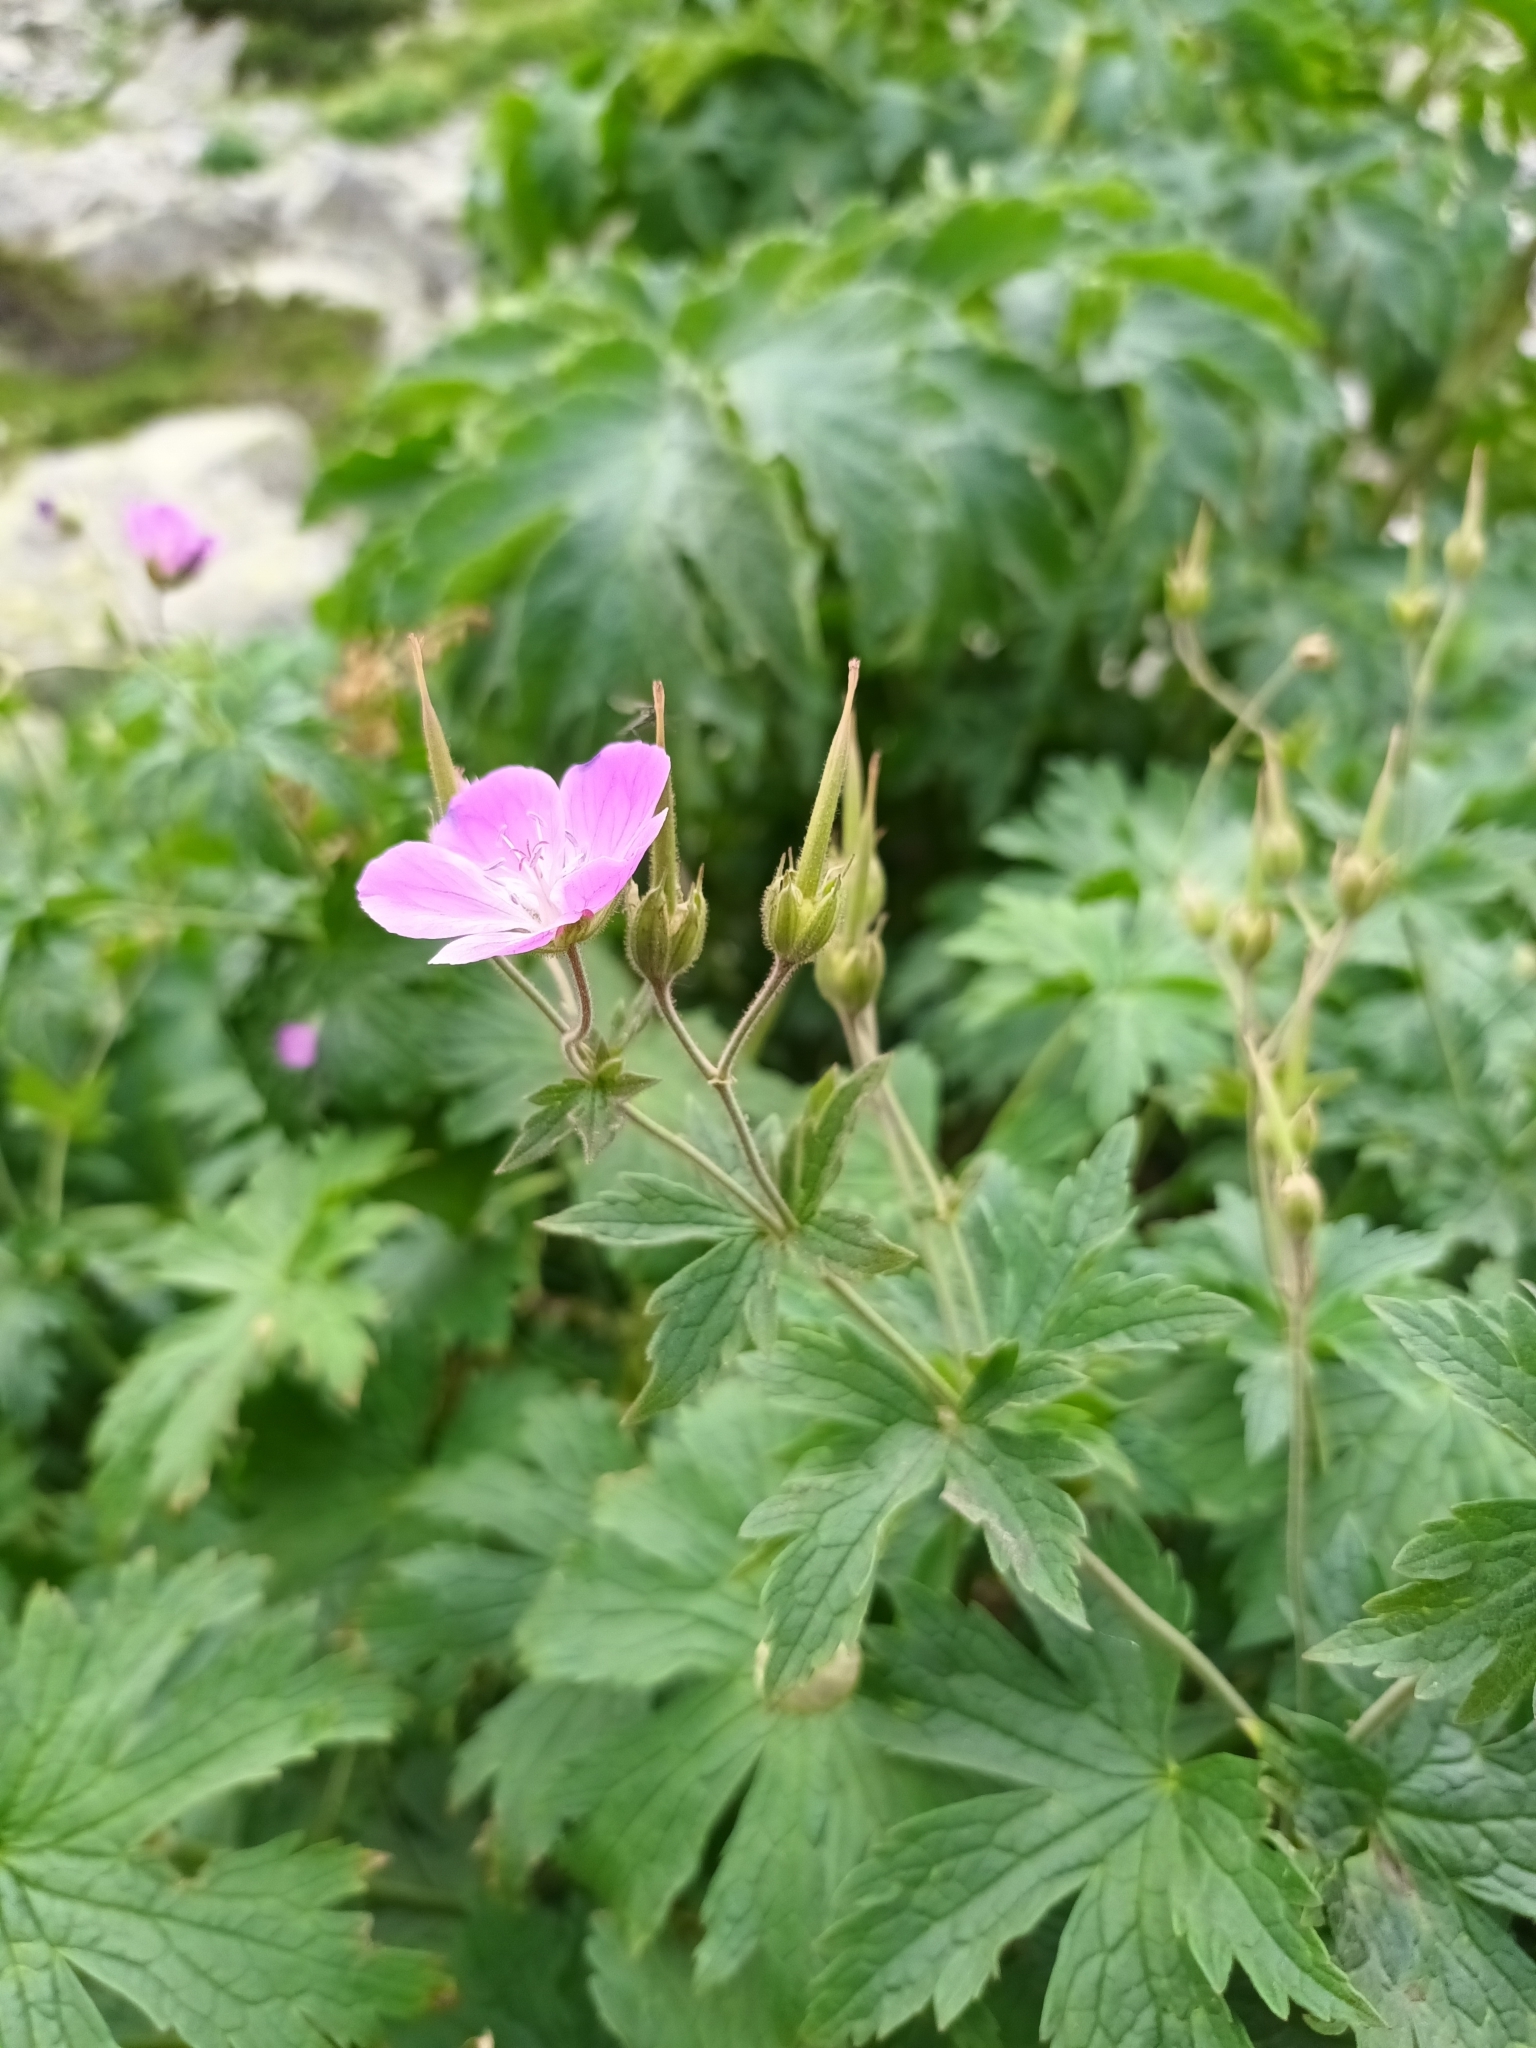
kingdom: Plantae
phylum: Tracheophyta
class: Magnoliopsida
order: Geraniales
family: Geraniaceae
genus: Geranium
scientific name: Geranium sylvaticum
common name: Wood crane's-bill
